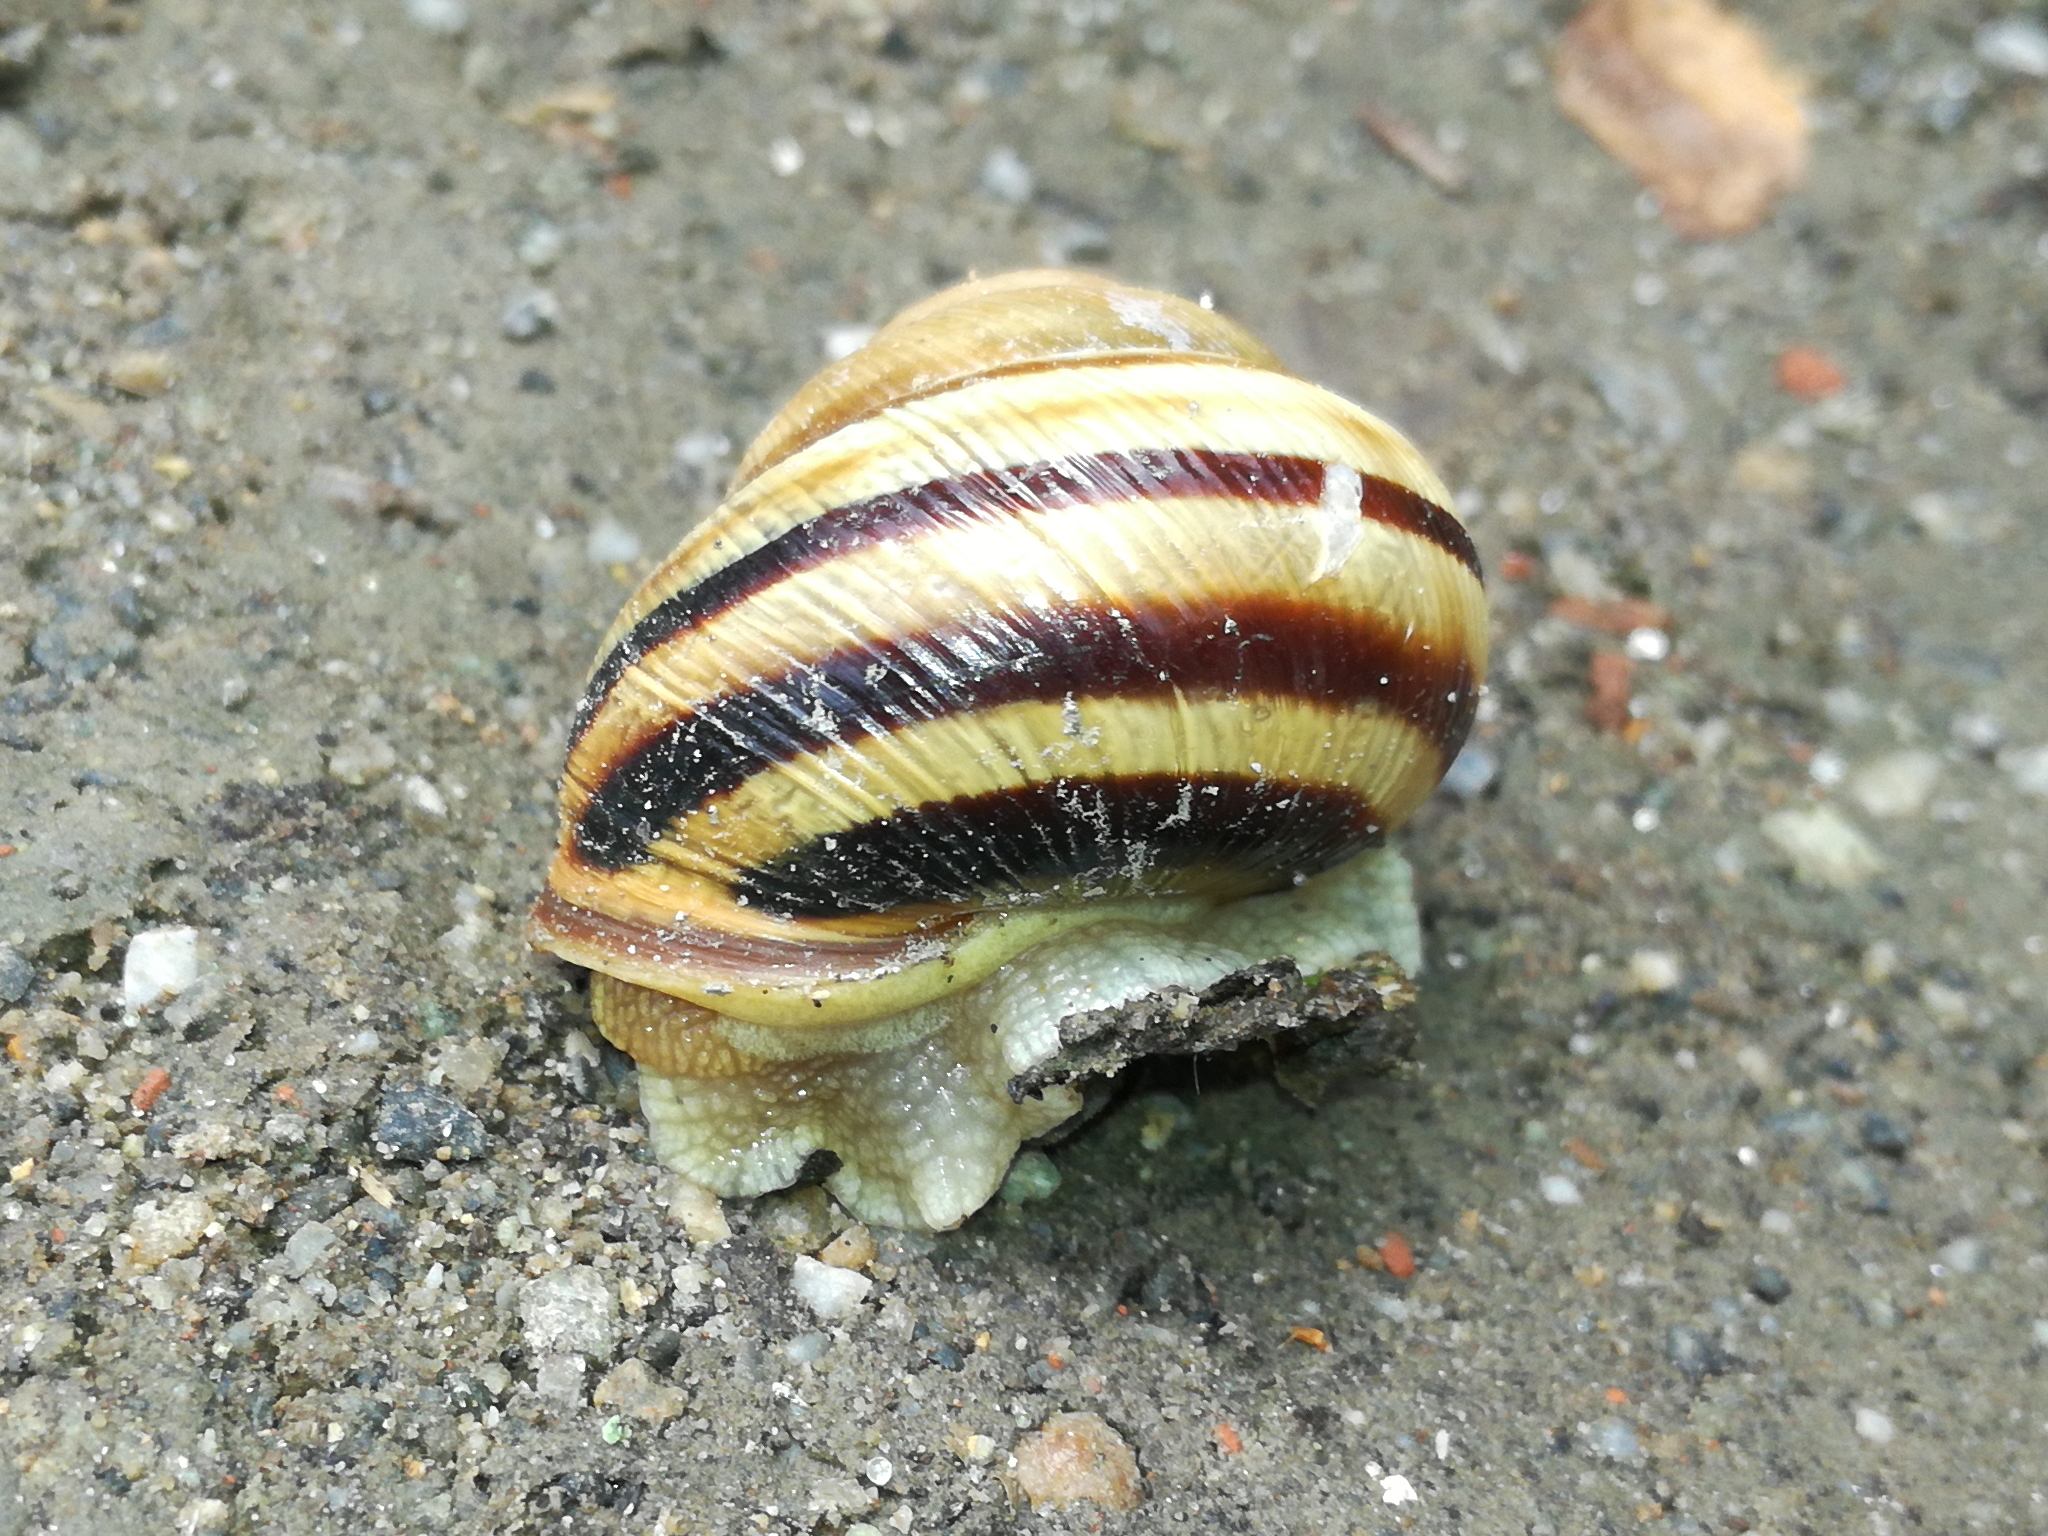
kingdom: Animalia
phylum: Mollusca
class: Gastropoda
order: Stylommatophora
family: Helicidae
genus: Caucasotachea
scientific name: Caucasotachea vindobonensis
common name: European helicid land snail
